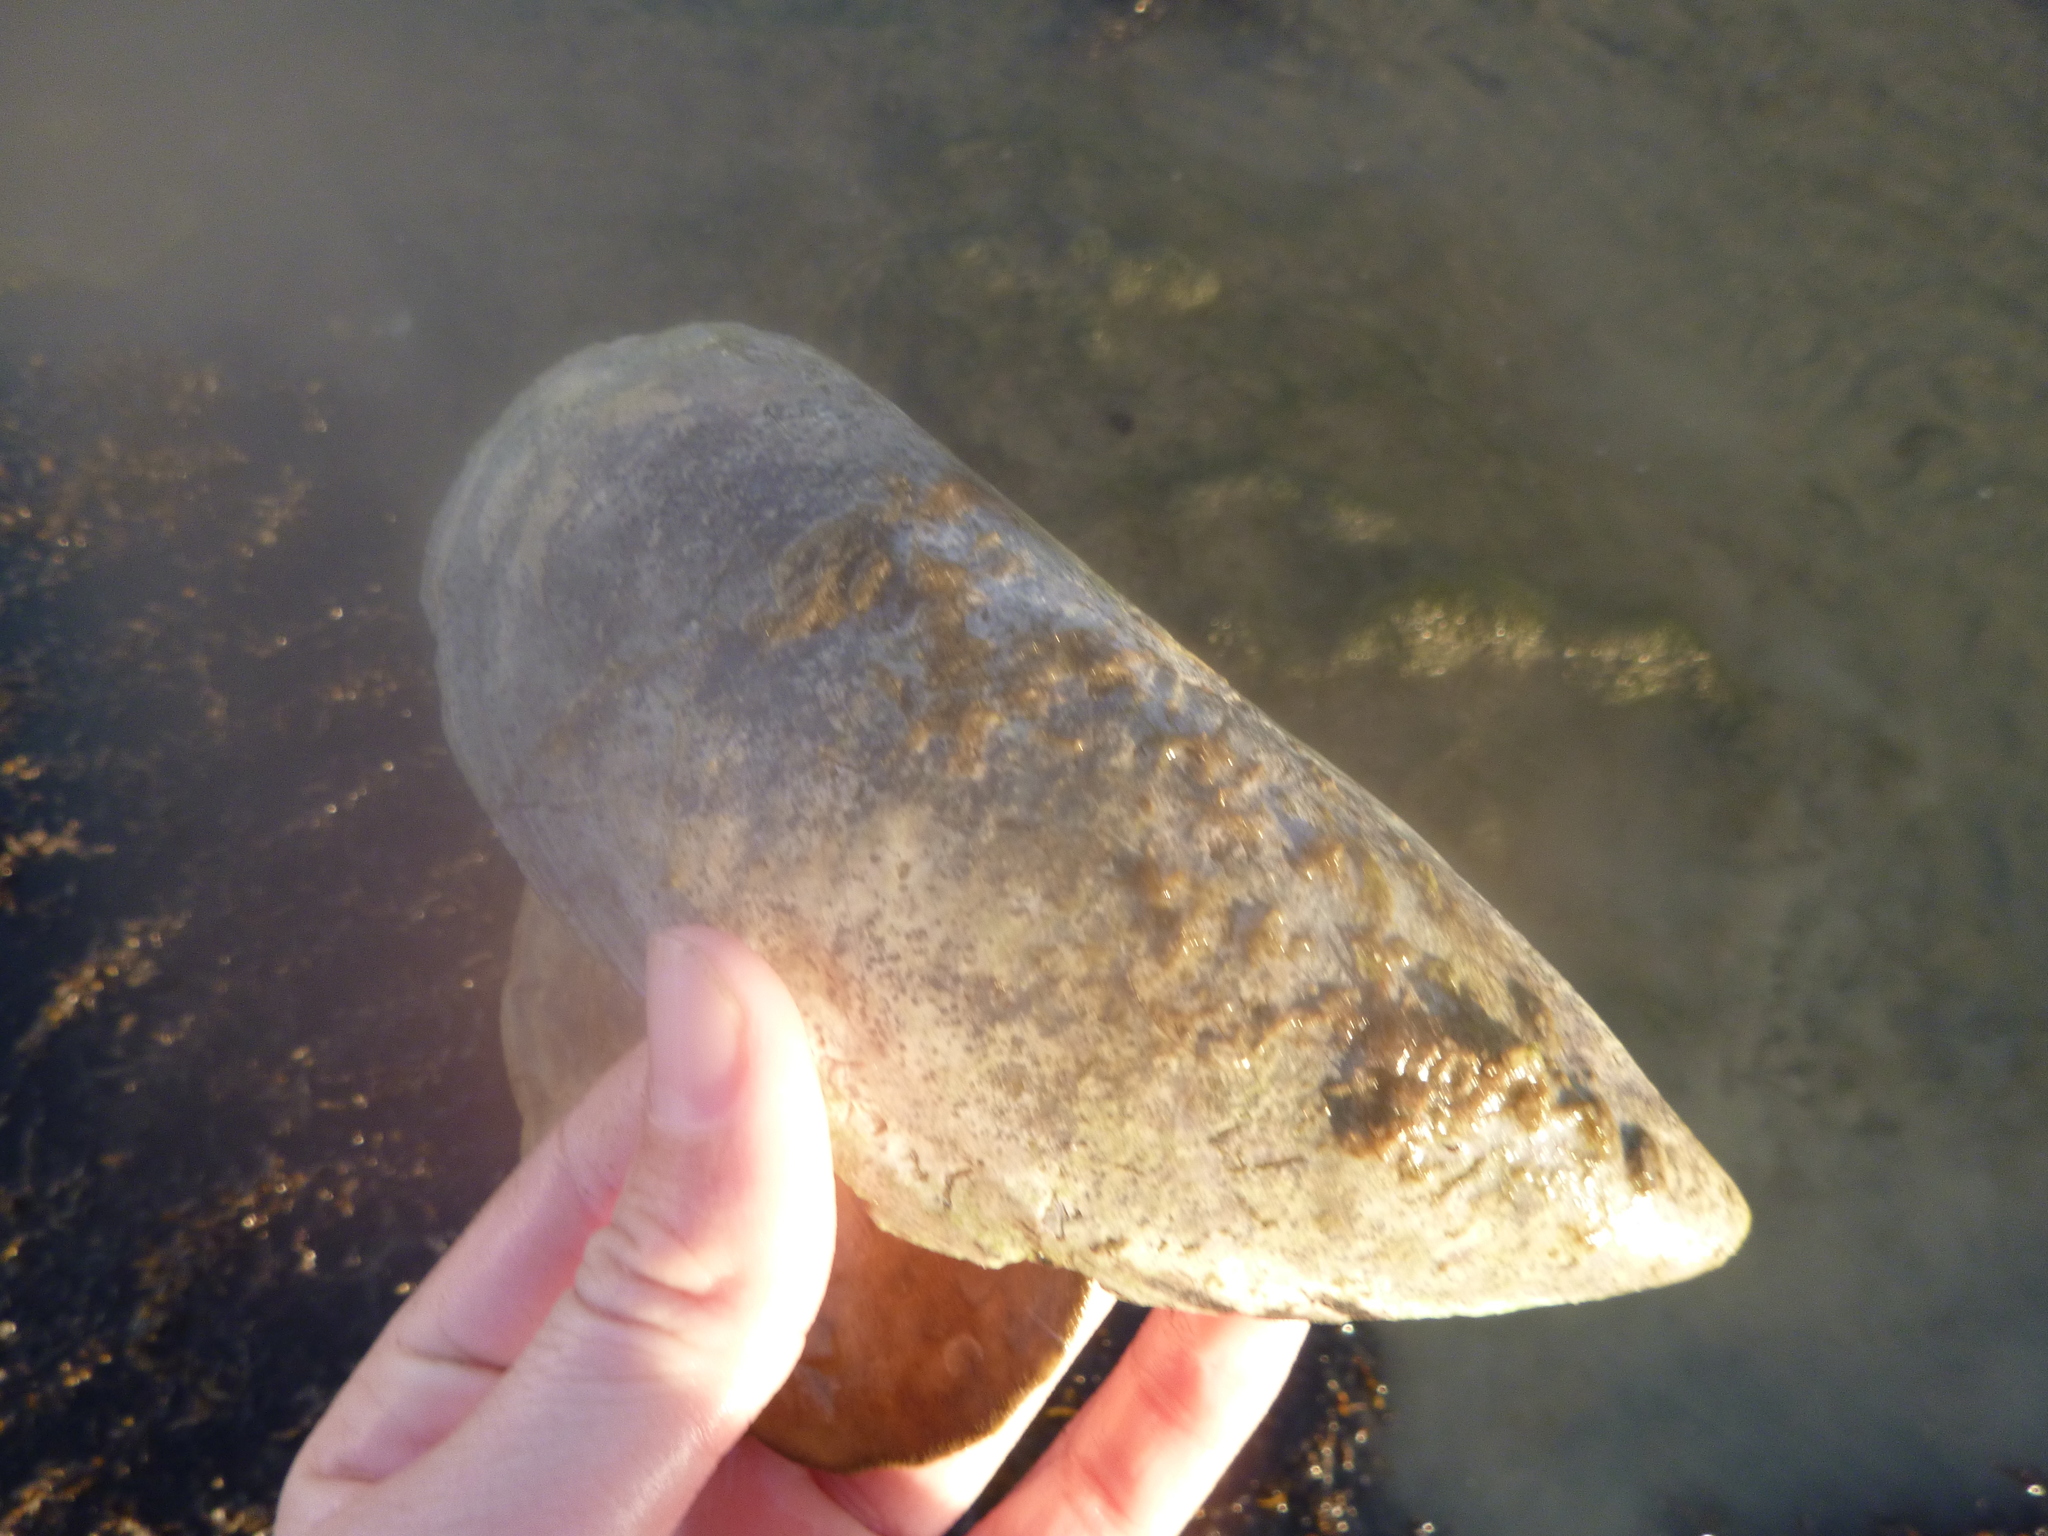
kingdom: Animalia
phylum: Mollusca
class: Bivalvia
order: Mytilida
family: Mytilidae
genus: Perna
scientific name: Perna canaliculus
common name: New zealand greenshelltm
